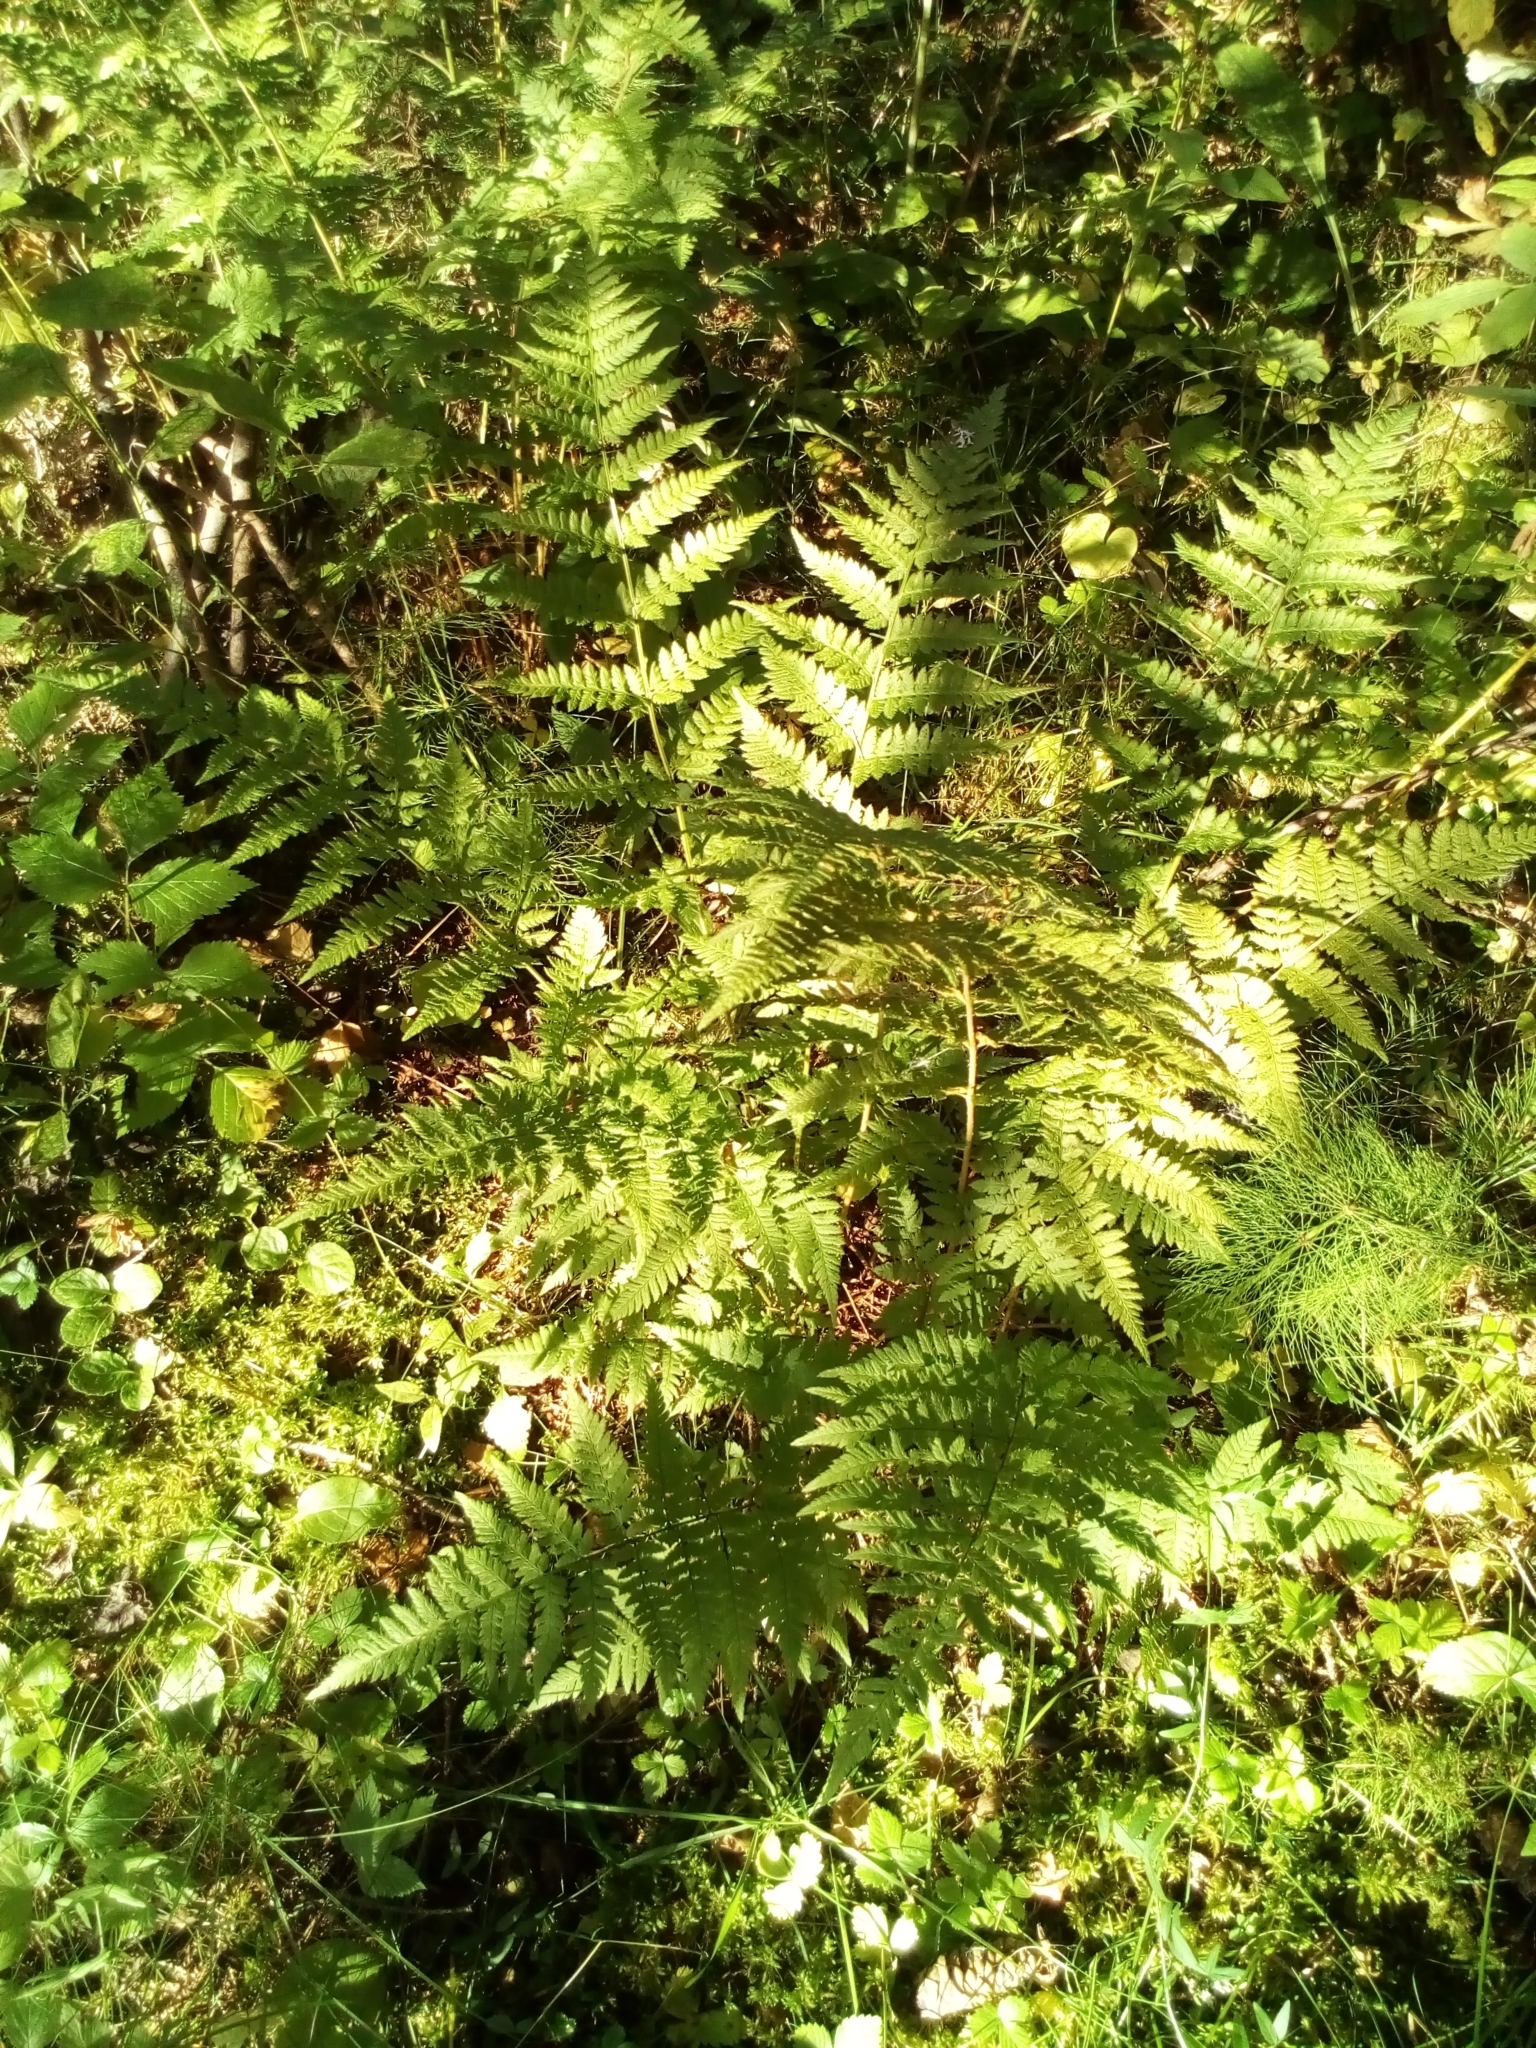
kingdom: Plantae
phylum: Tracheophyta
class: Polypodiopsida
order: Polypodiales
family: Dryopteridaceae
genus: Dryopteris
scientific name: Dryopteris carthusiana
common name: Narrow buckler-fern
